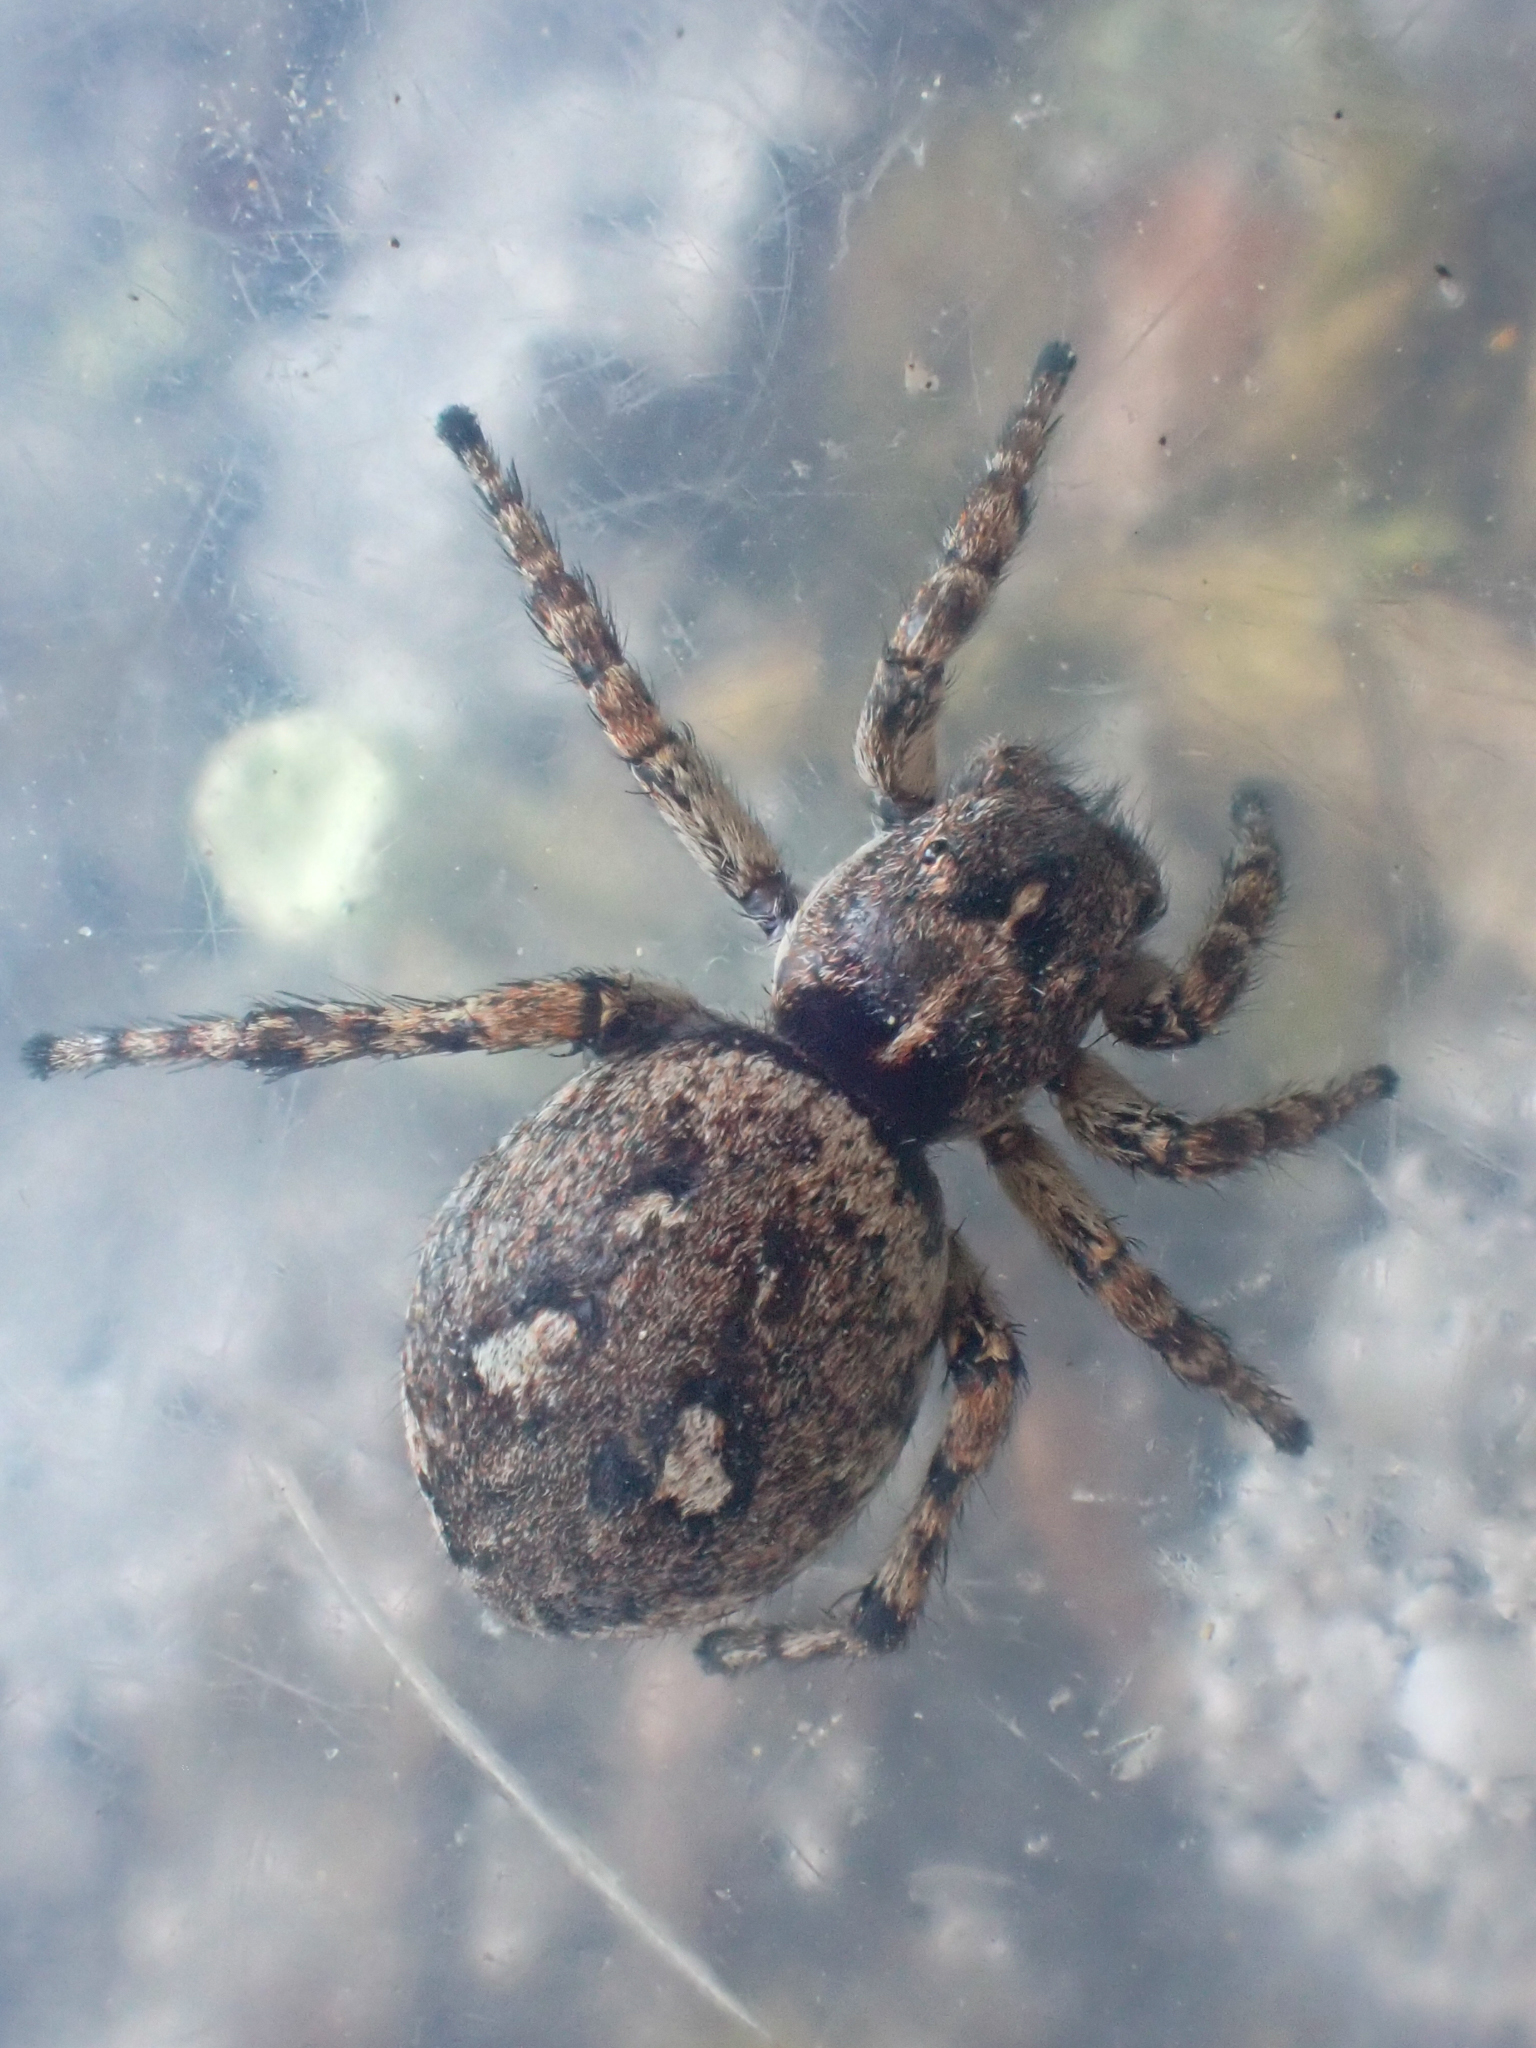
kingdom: Animalia
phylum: Arthropoda
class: Arachnida
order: Araneae
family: Salticidae
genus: Sittisax
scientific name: Sittisax ranieri
